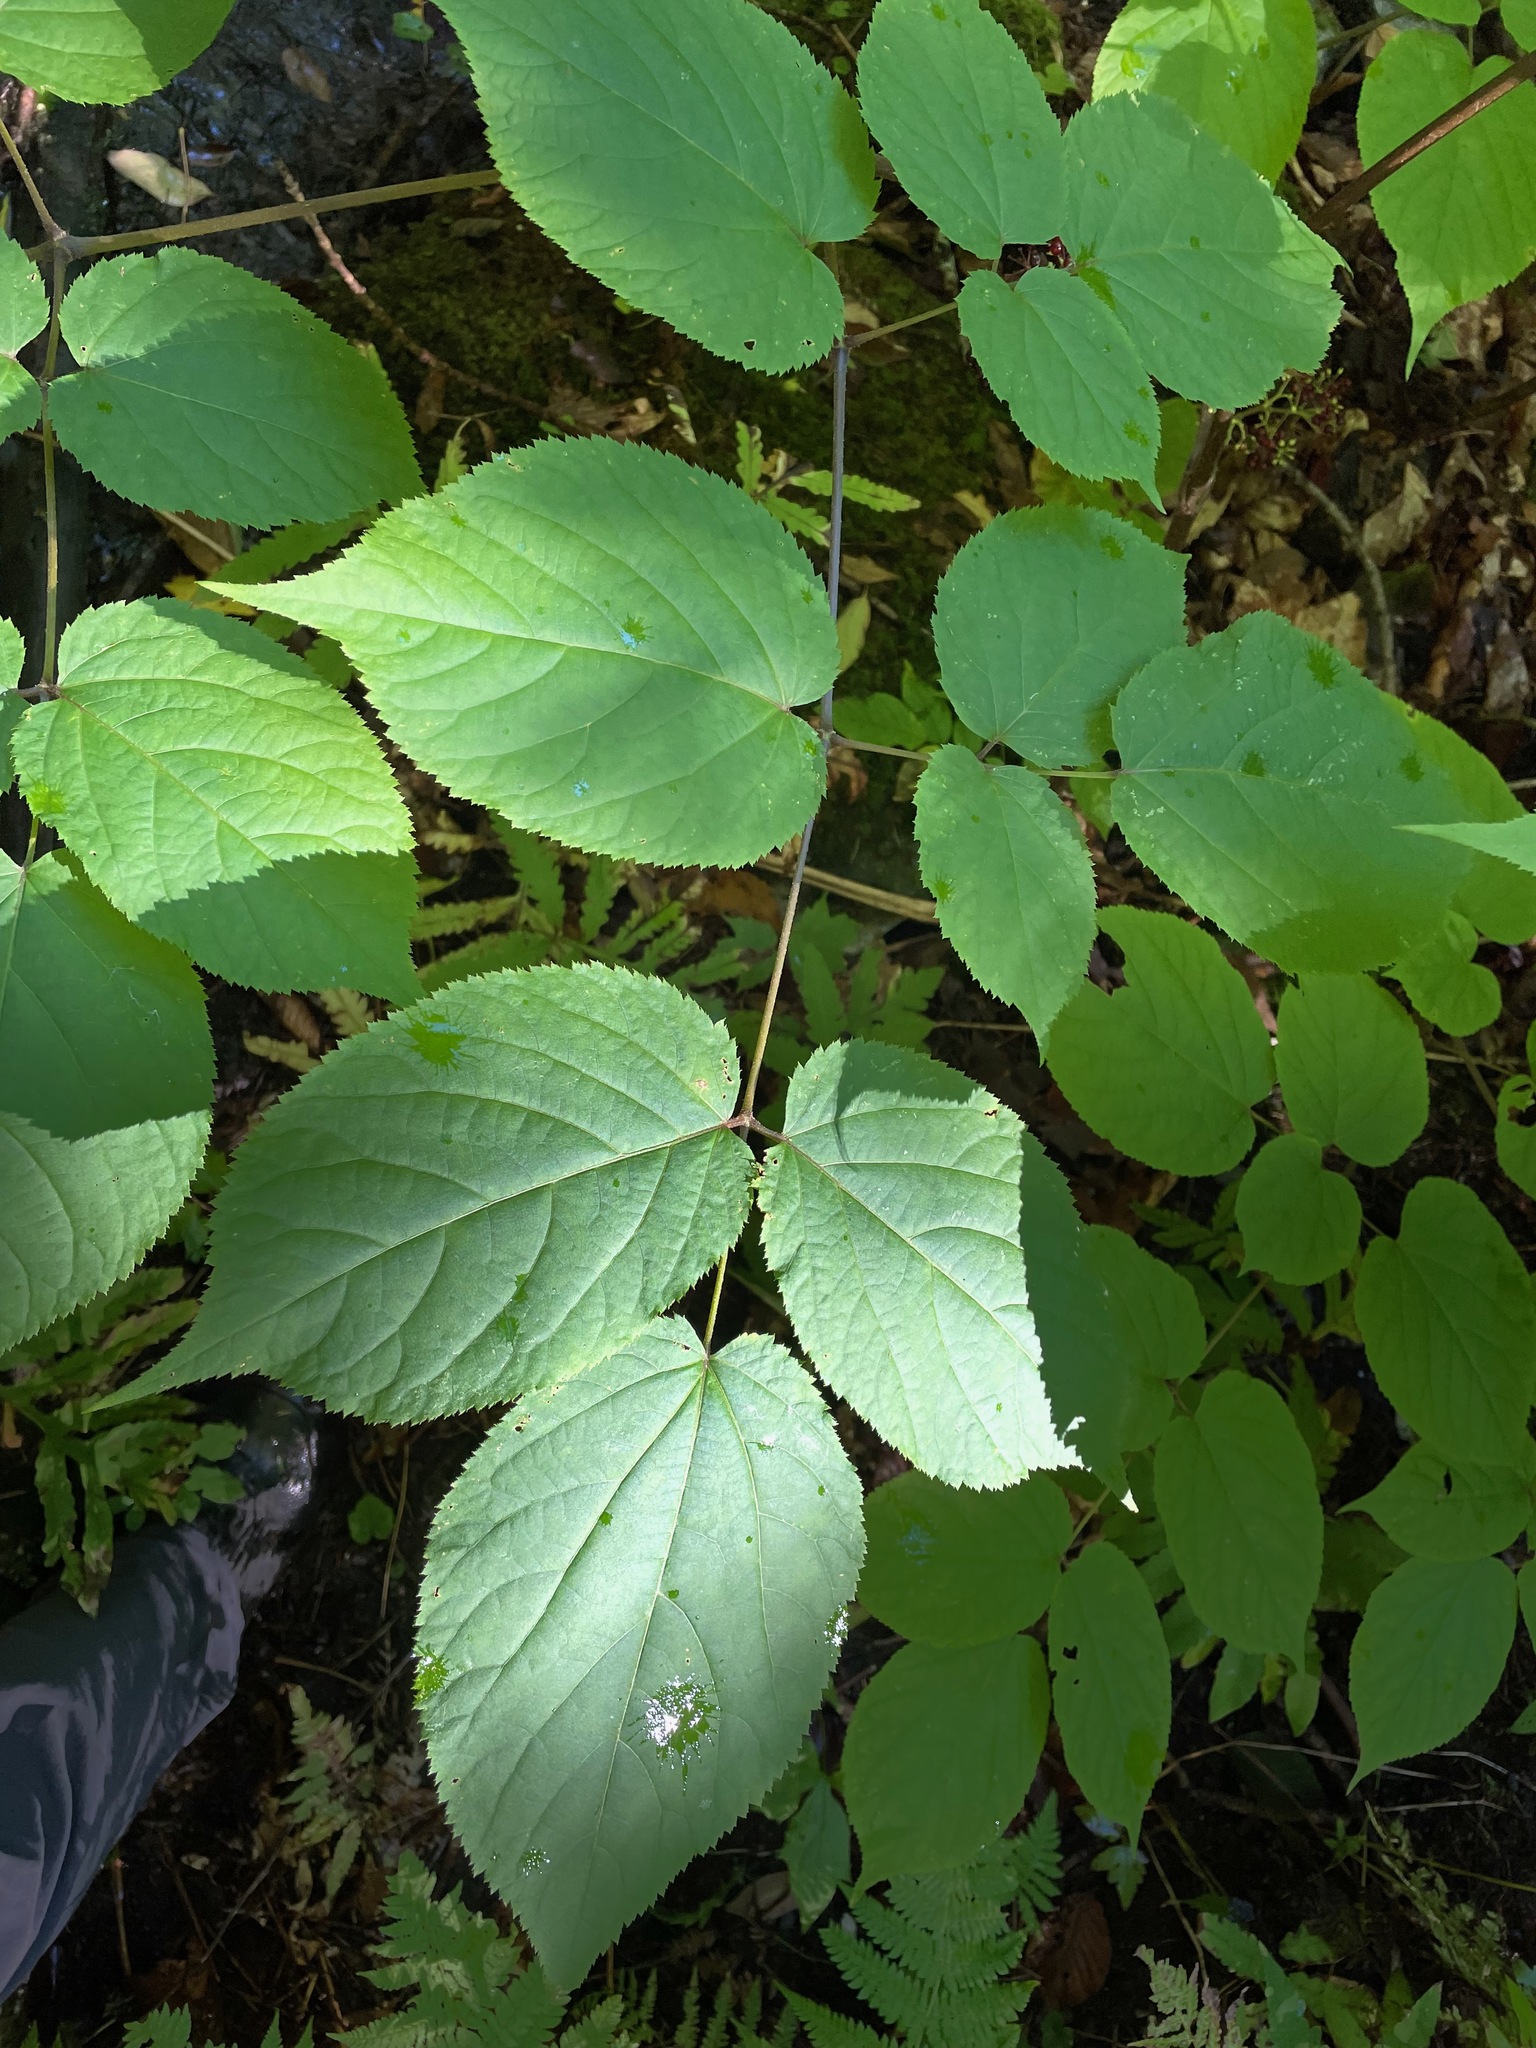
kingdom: Plantae
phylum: Tracheophyta
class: Magnoliopsida
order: Apiales
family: Araliaceae
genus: Aralia
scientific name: Aralia racemosa
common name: American-spikenard
